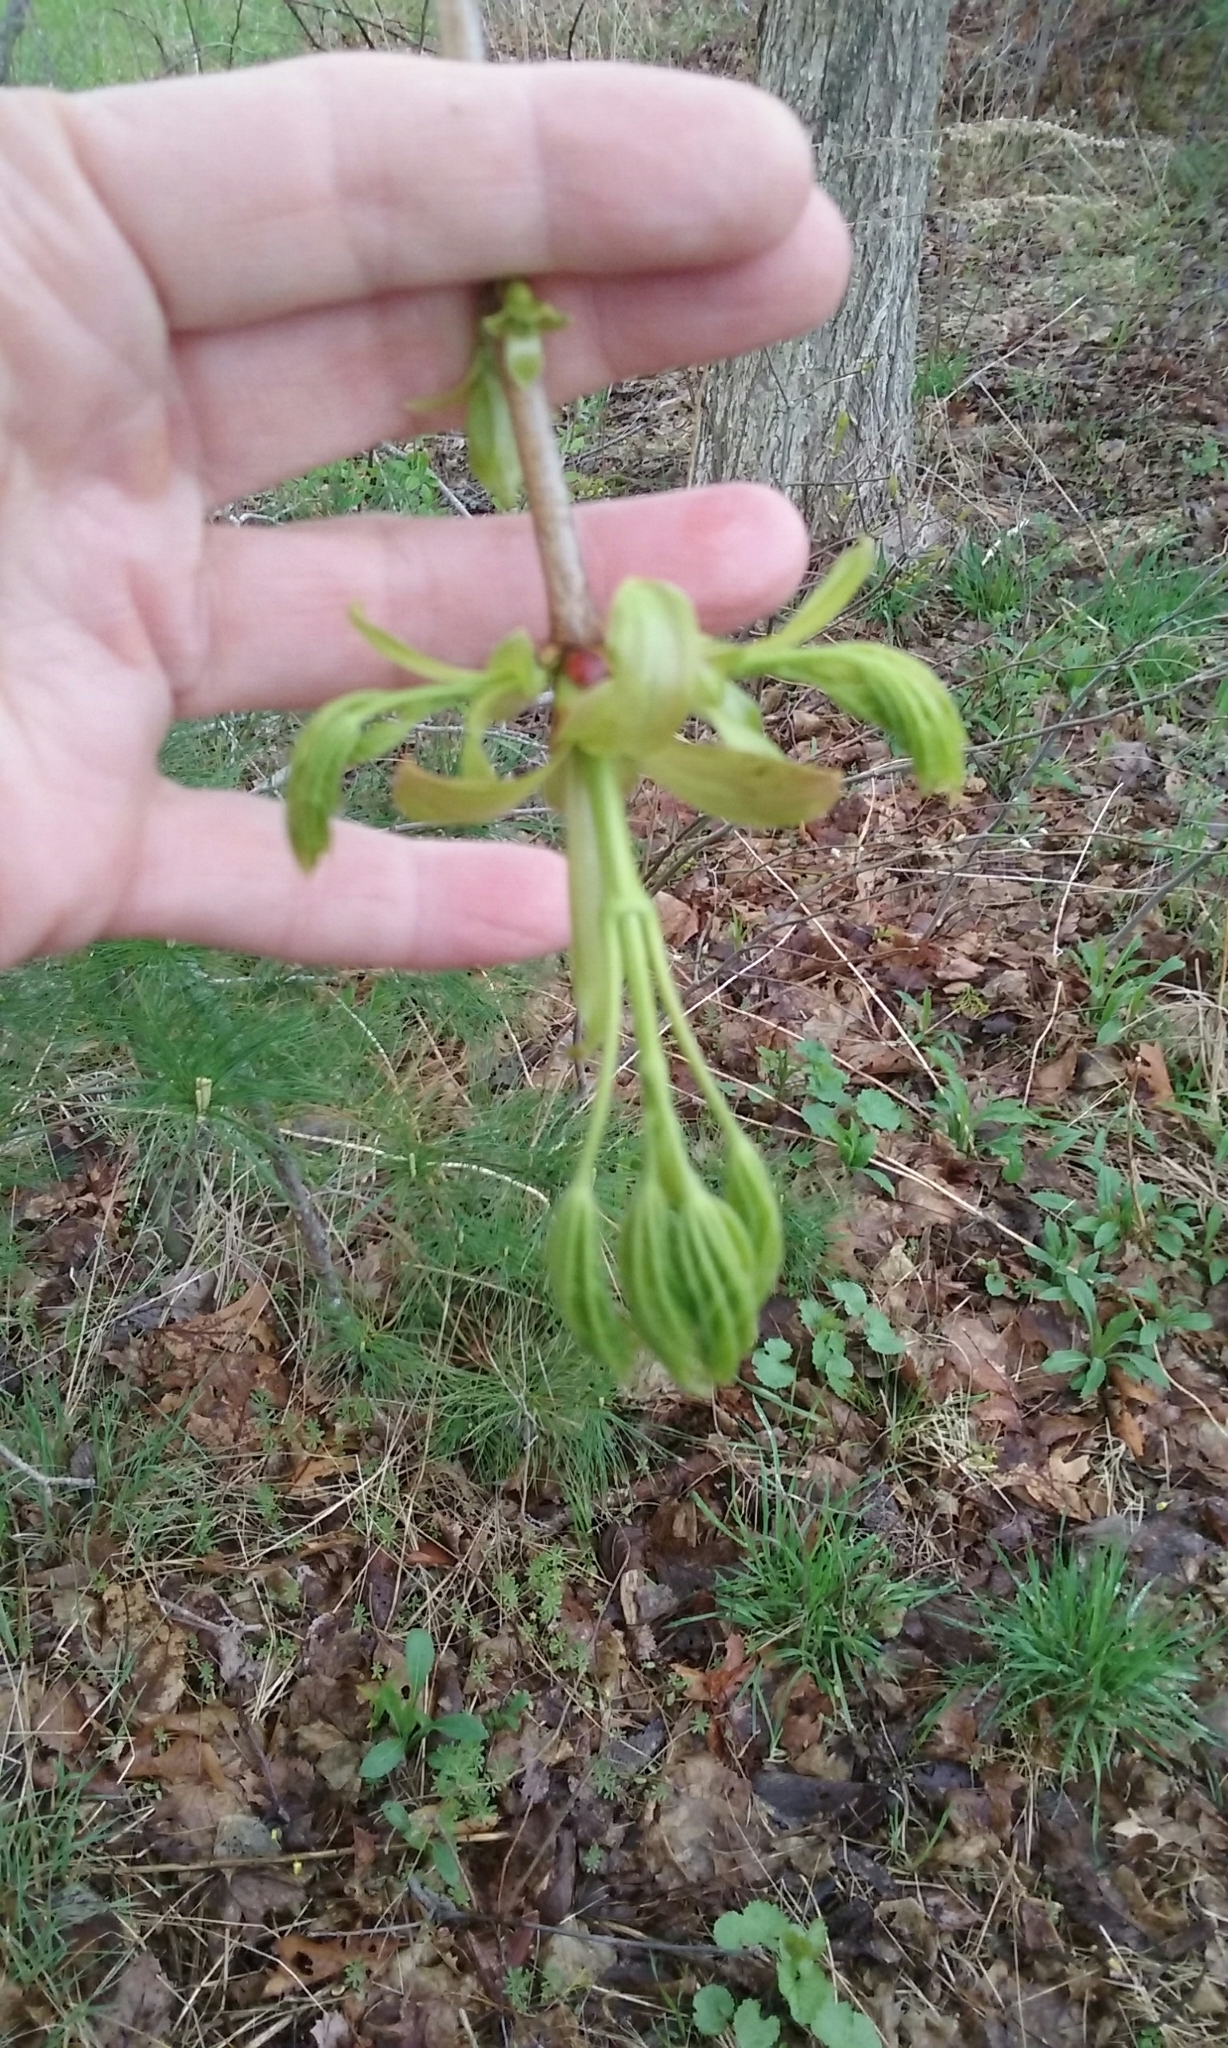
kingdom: Plantae
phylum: Tracheophyta
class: Magnoliopsida
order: Sapindales
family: Sapindaceae
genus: Acer
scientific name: Acer platanoides
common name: Norway maple
